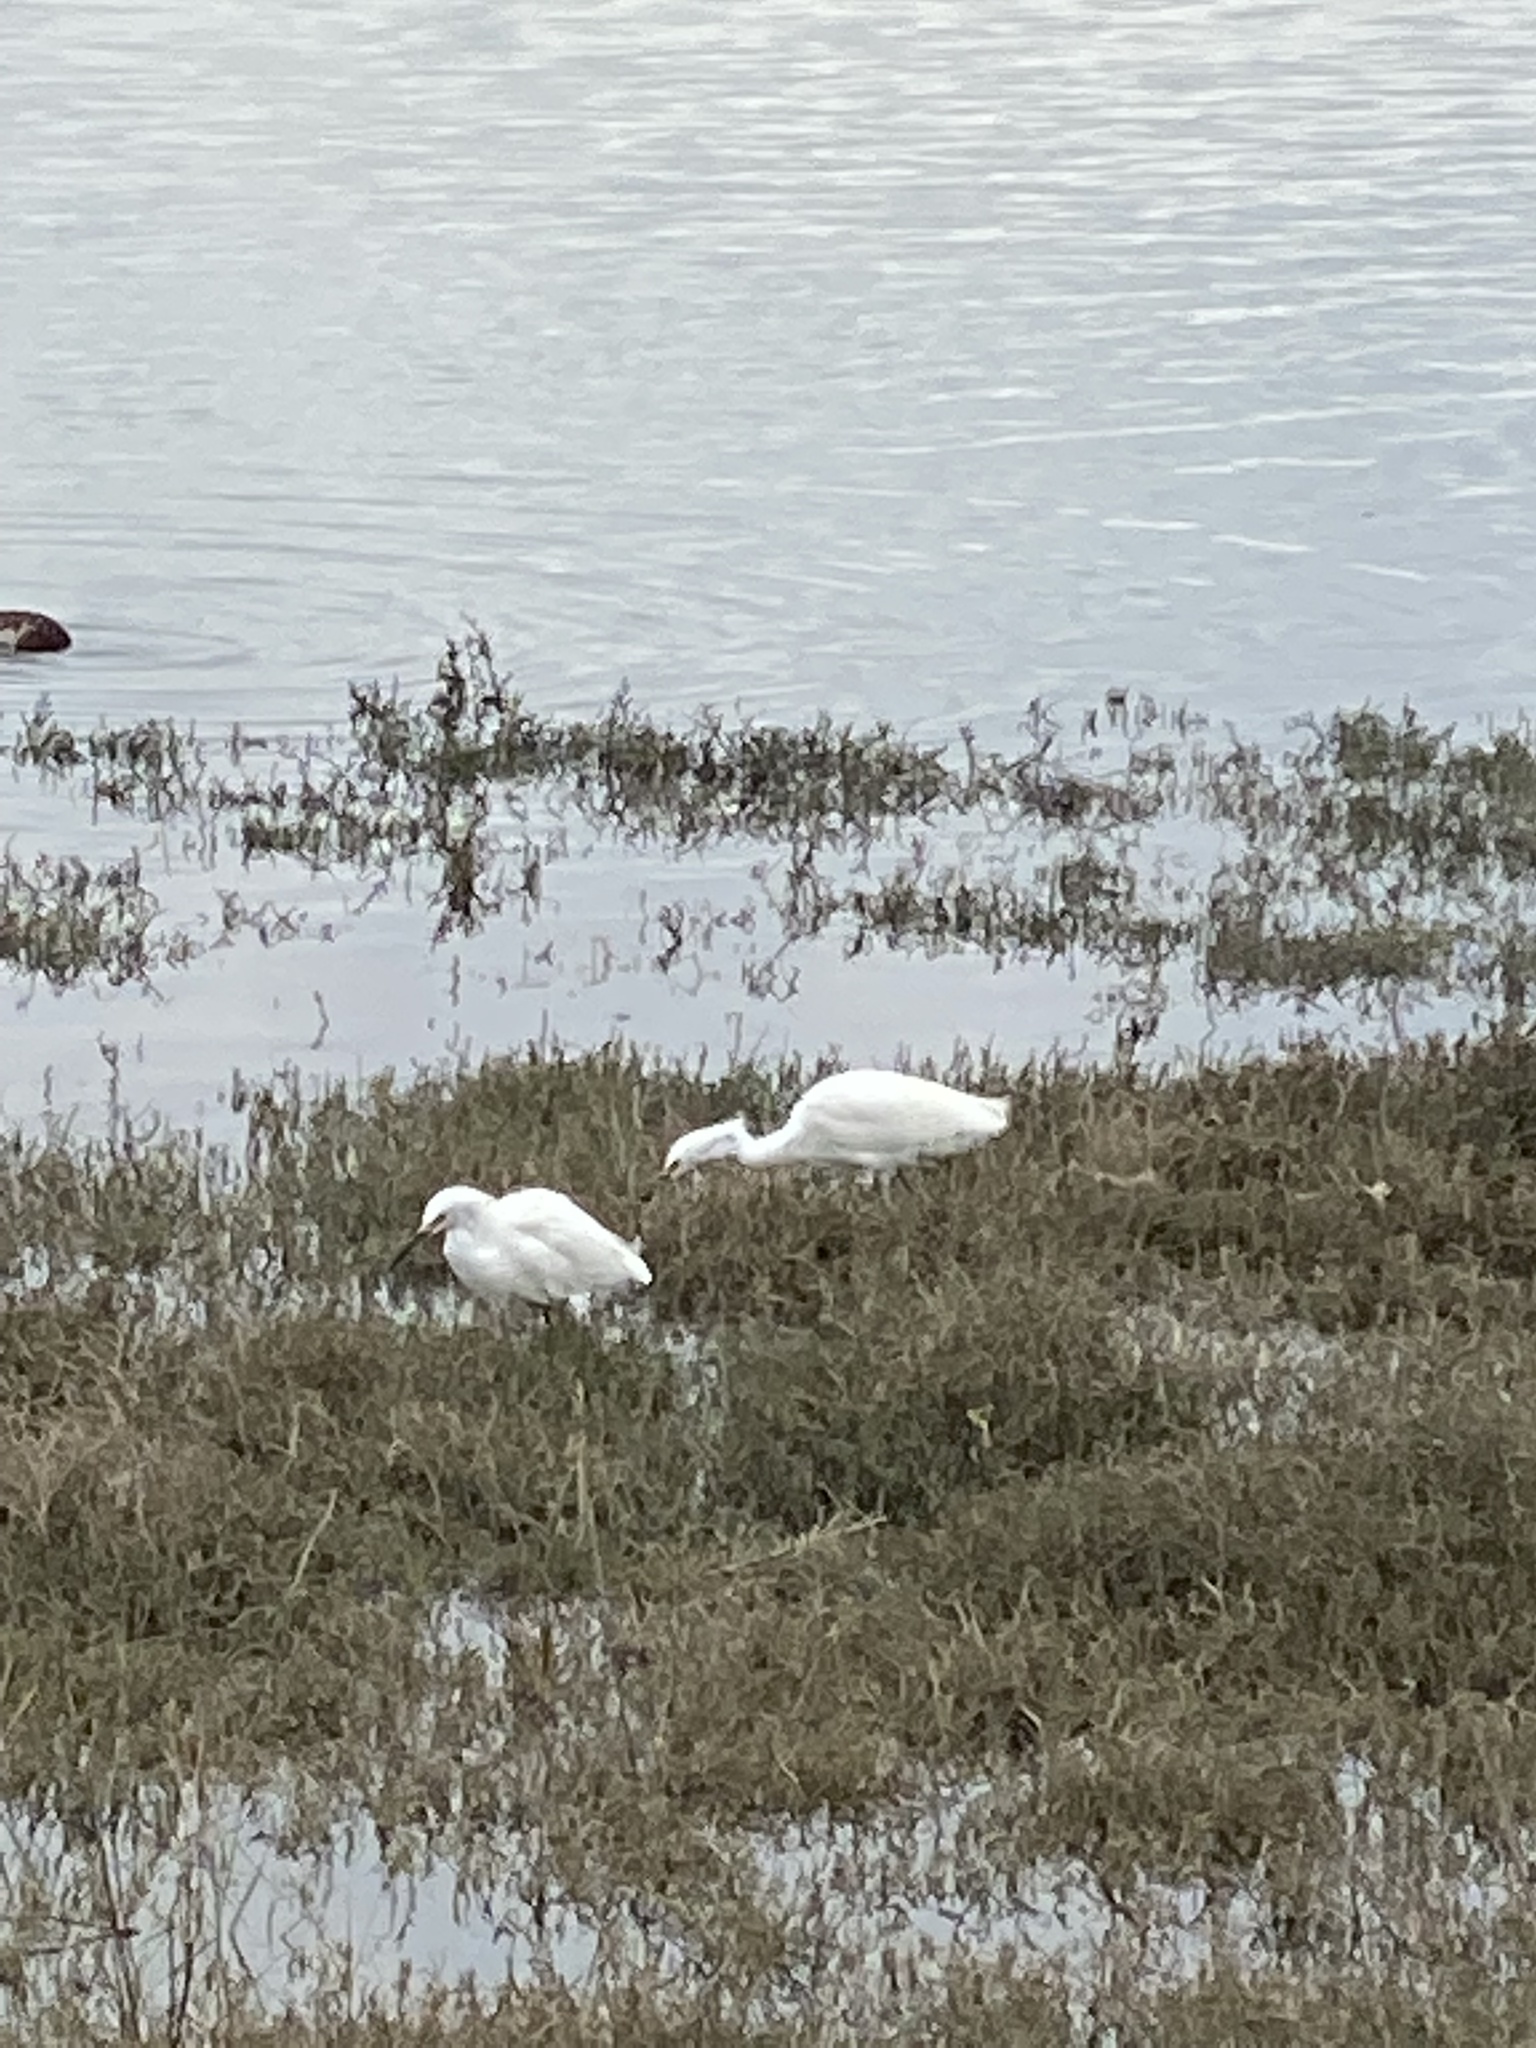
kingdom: Animalia
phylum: Chordata
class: Aves
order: Pelecaniformes
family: Ardeidae
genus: Egretta
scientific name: Egretta thula
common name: Snowy egret
